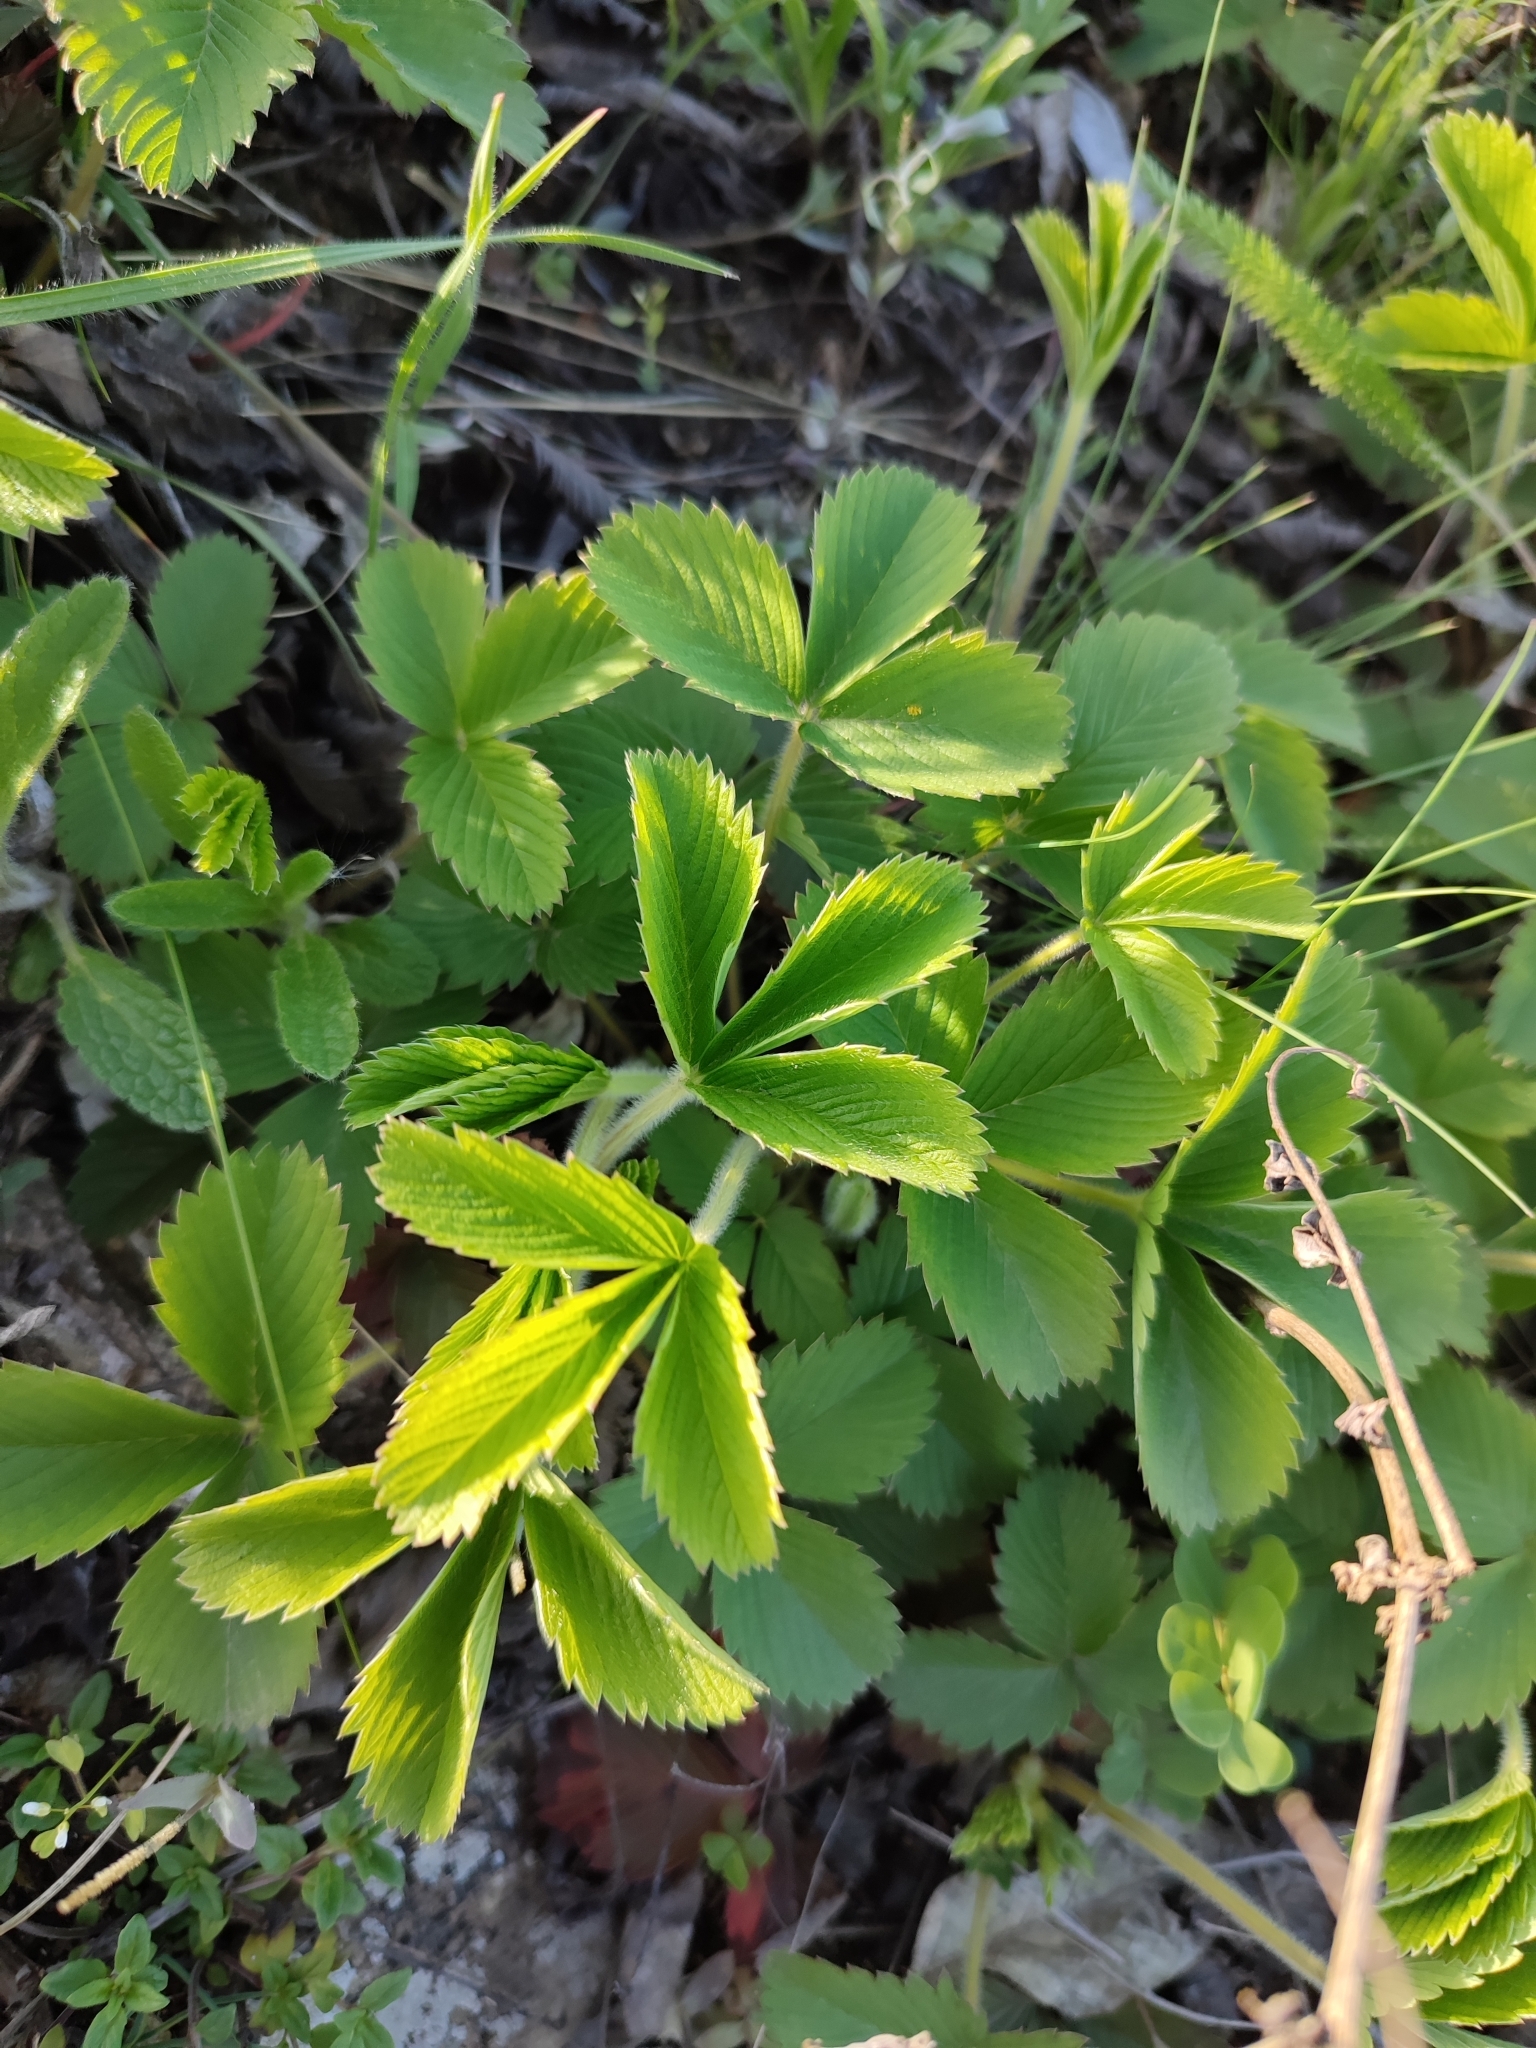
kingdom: Plantae
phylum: Tracheophyta
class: Magnoliopsida
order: Rosales
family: Rosaceae
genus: Fragaria
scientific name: Fragaria viridis
